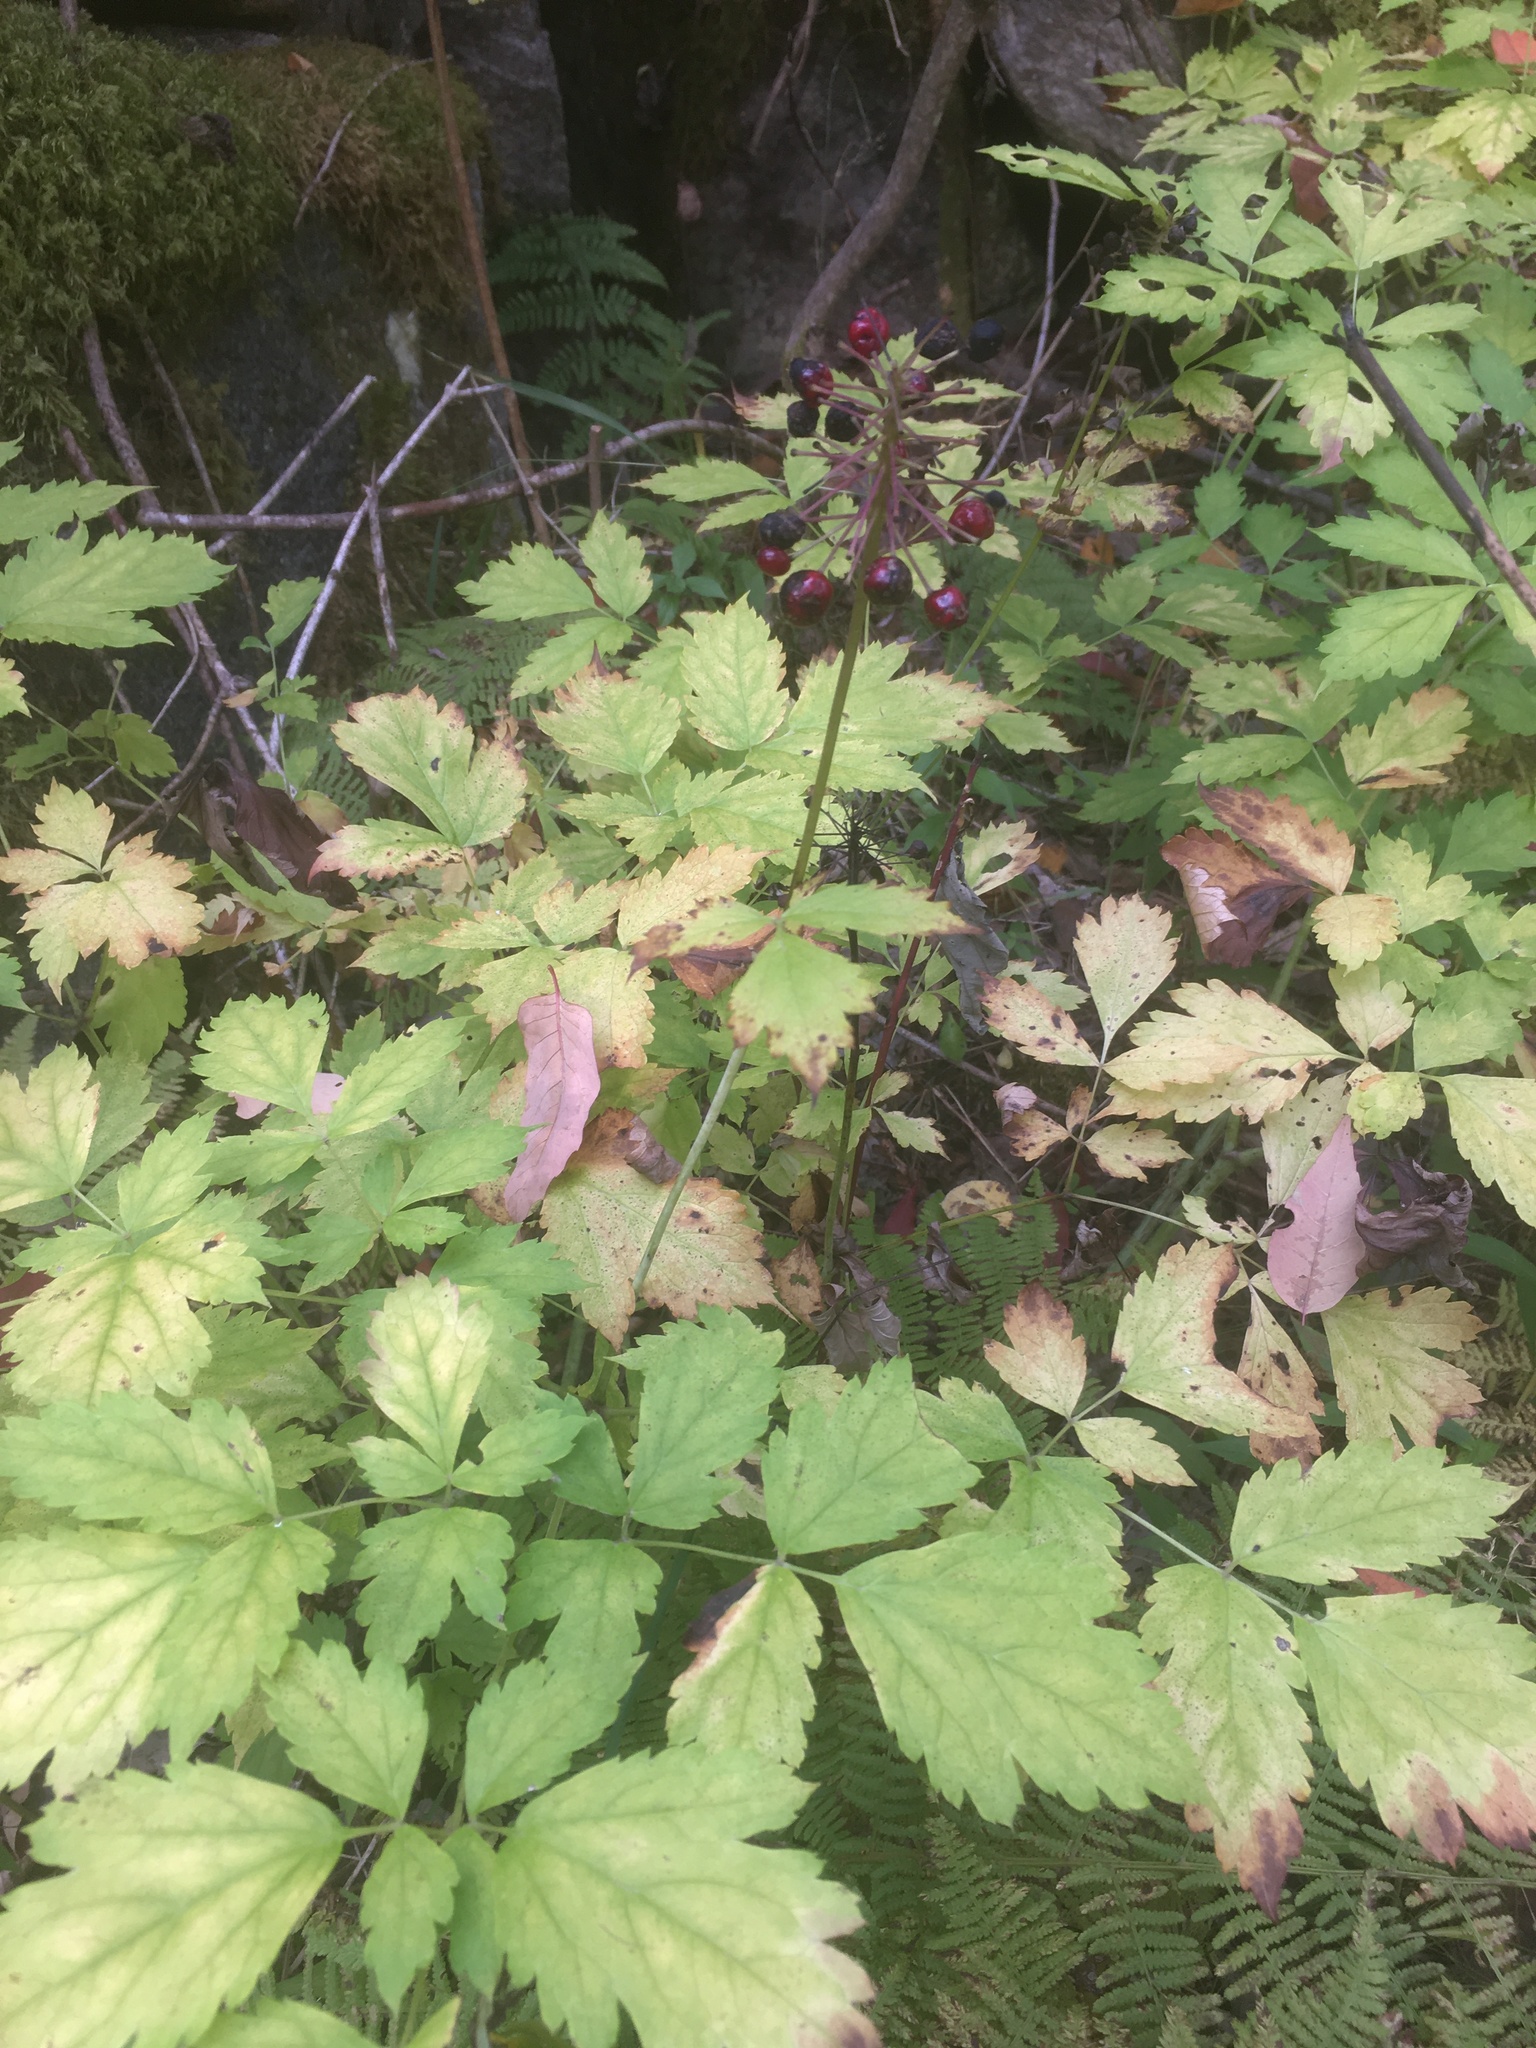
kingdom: Plantae
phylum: Tracheophyta
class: Magnoliopsida
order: Ranunculales
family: Ranunculaceae
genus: Actaea
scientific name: Actaea rubra
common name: Red baneberry
